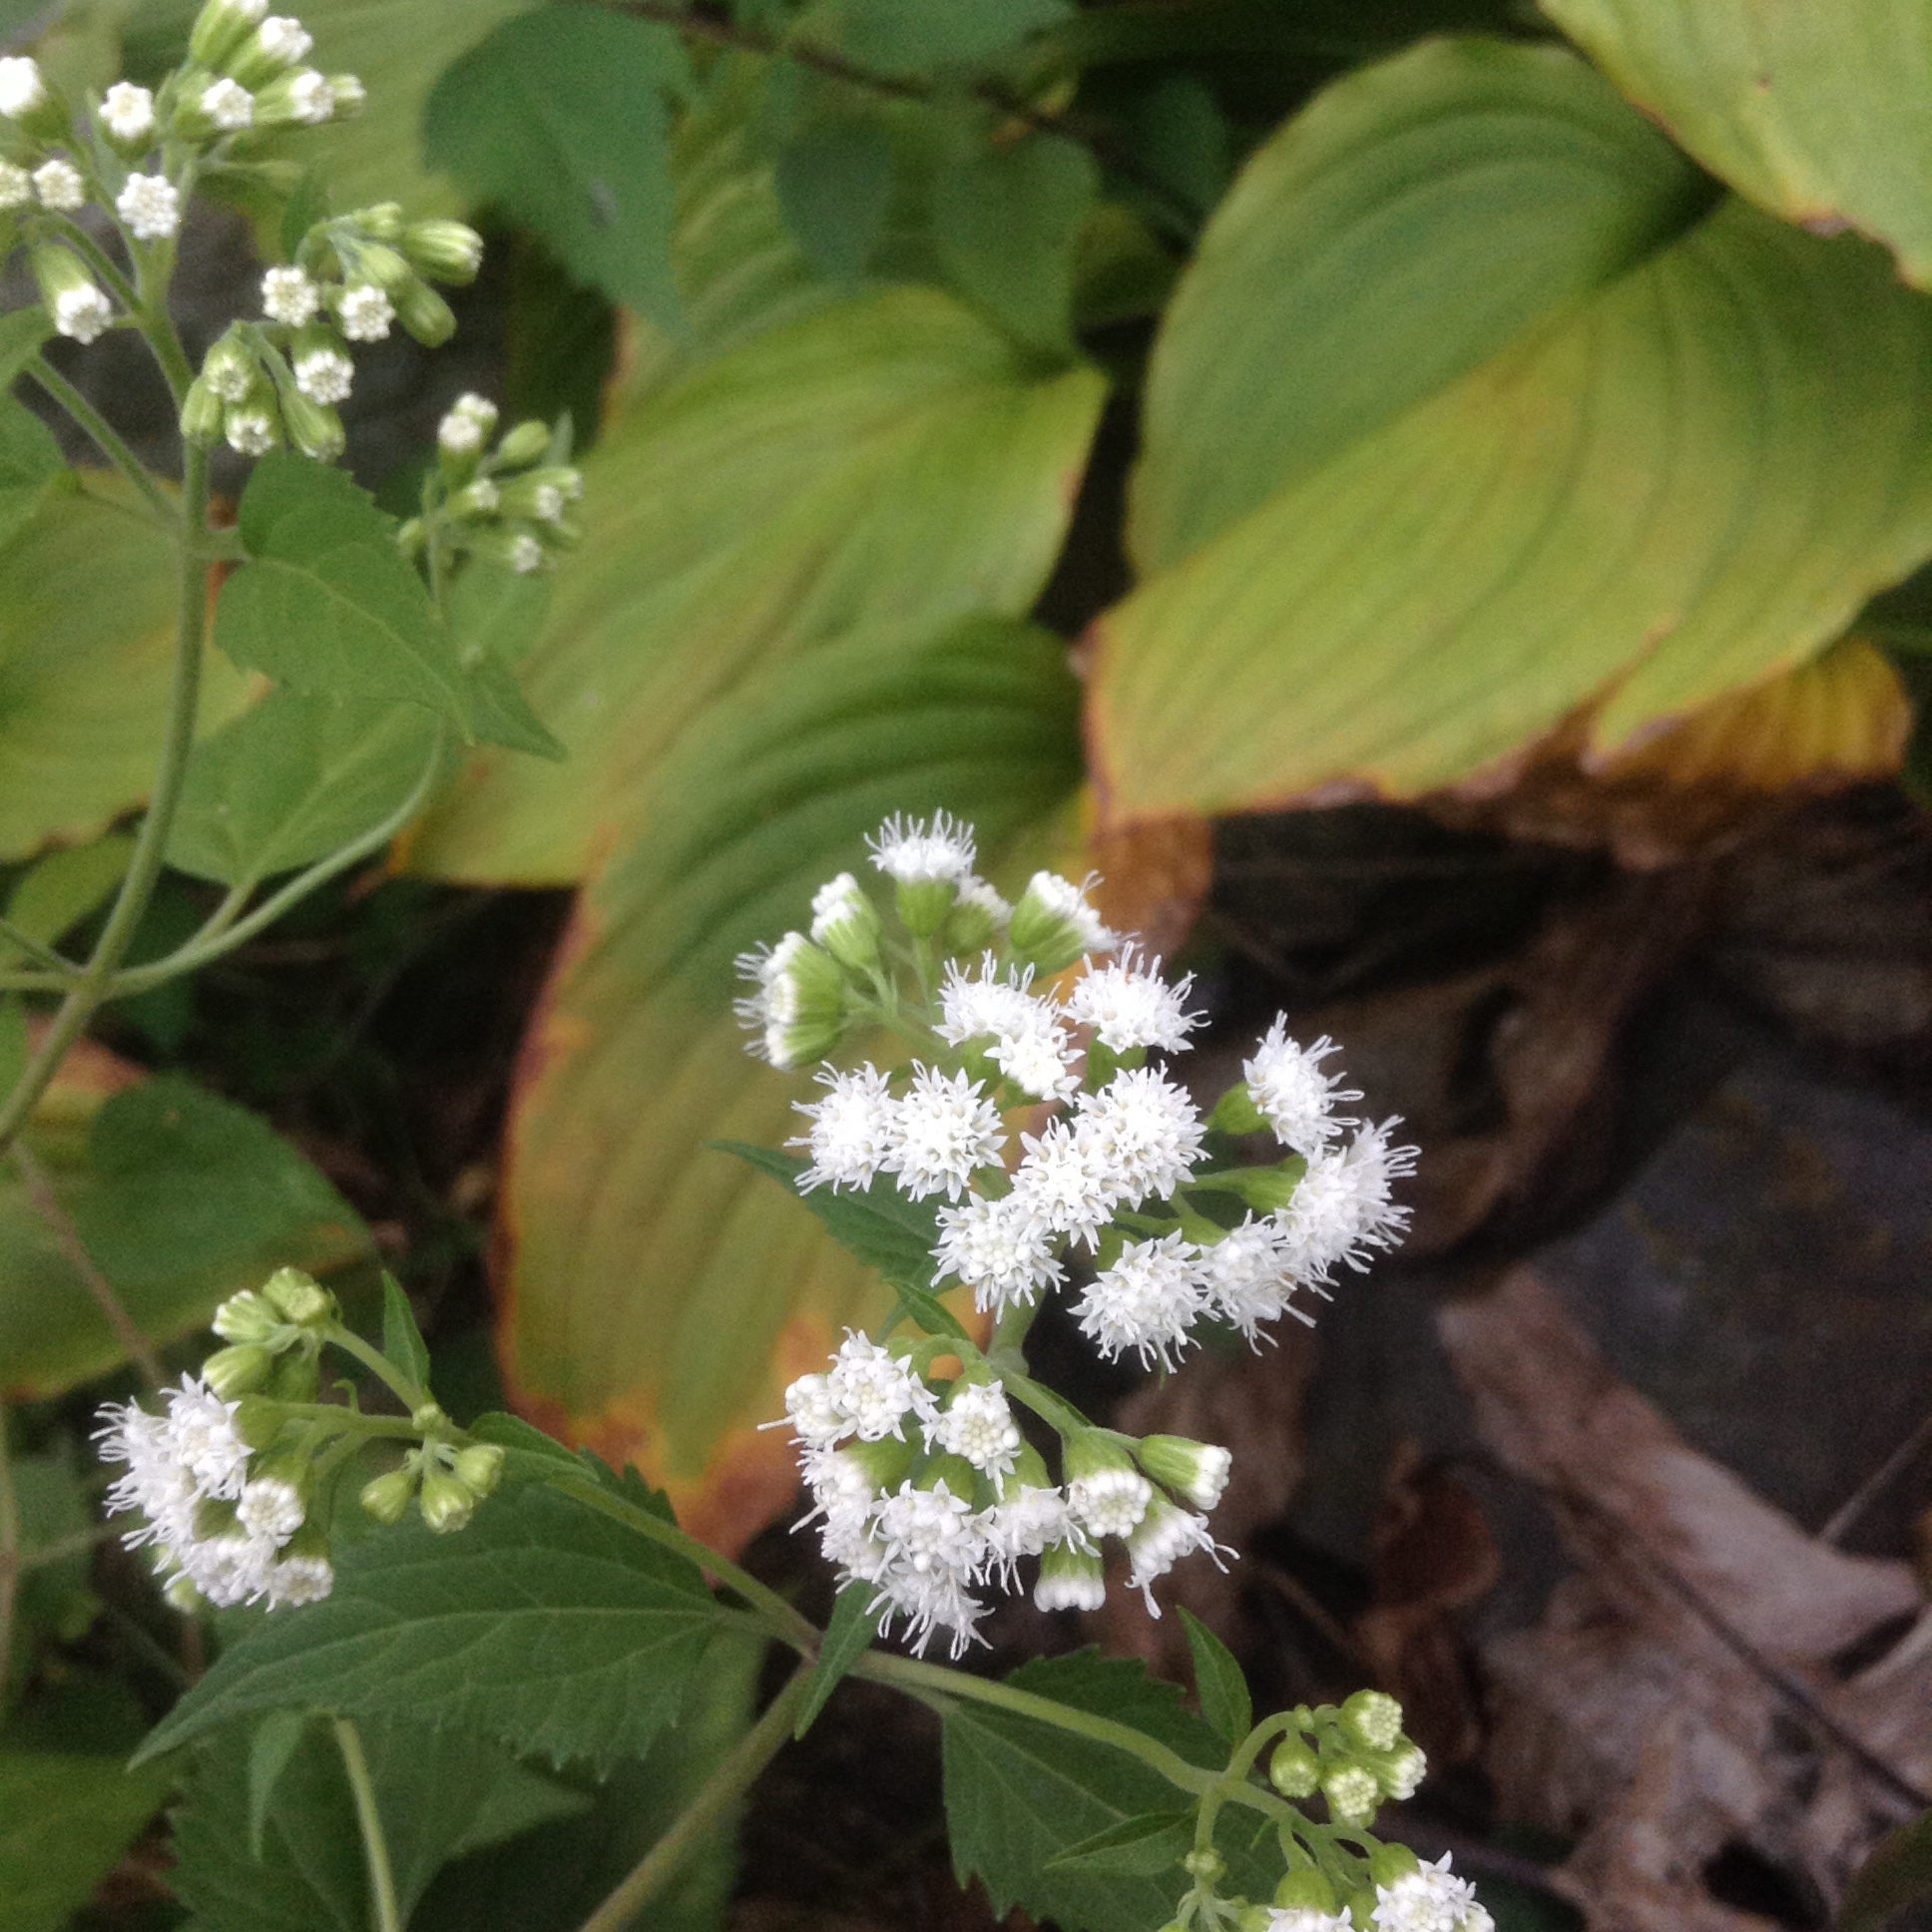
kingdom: Plantae
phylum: Tracheophyta
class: Magnoliopsida
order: Asterales
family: Asteraceae
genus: Ageratina
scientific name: Ageratina altissima
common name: White snakeroot
